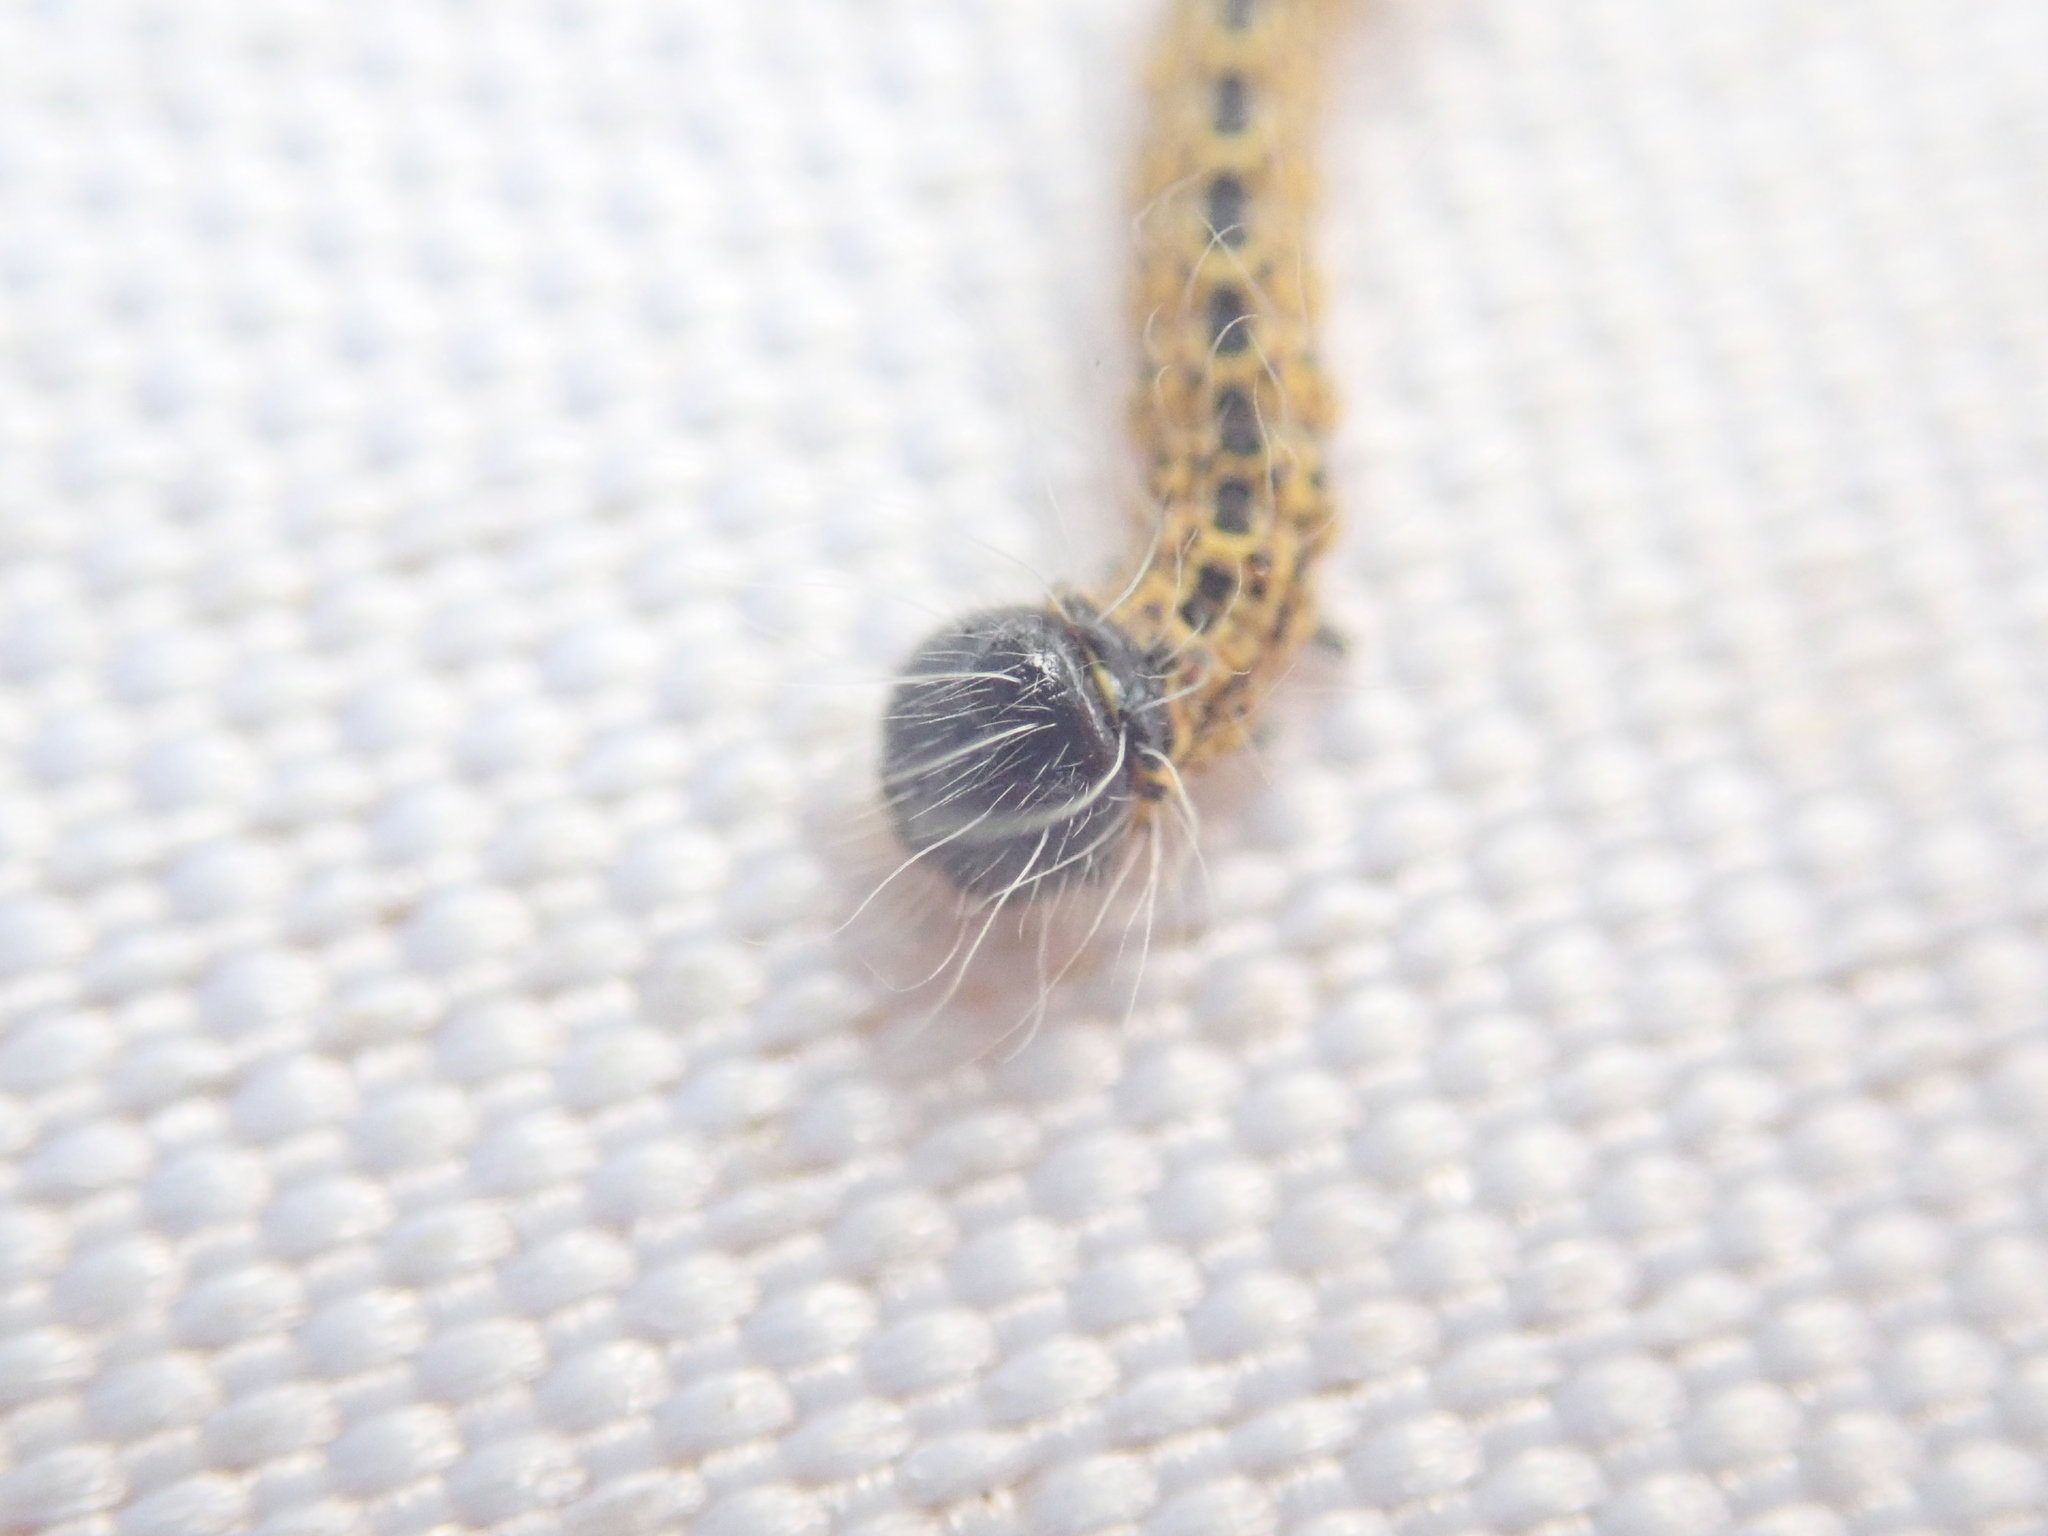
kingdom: Animalia
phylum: Arthropoda
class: Insecta
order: Lepidoptera
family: Notodontidae
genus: Phalera
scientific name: Phalera bucephala
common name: Buff-tip
